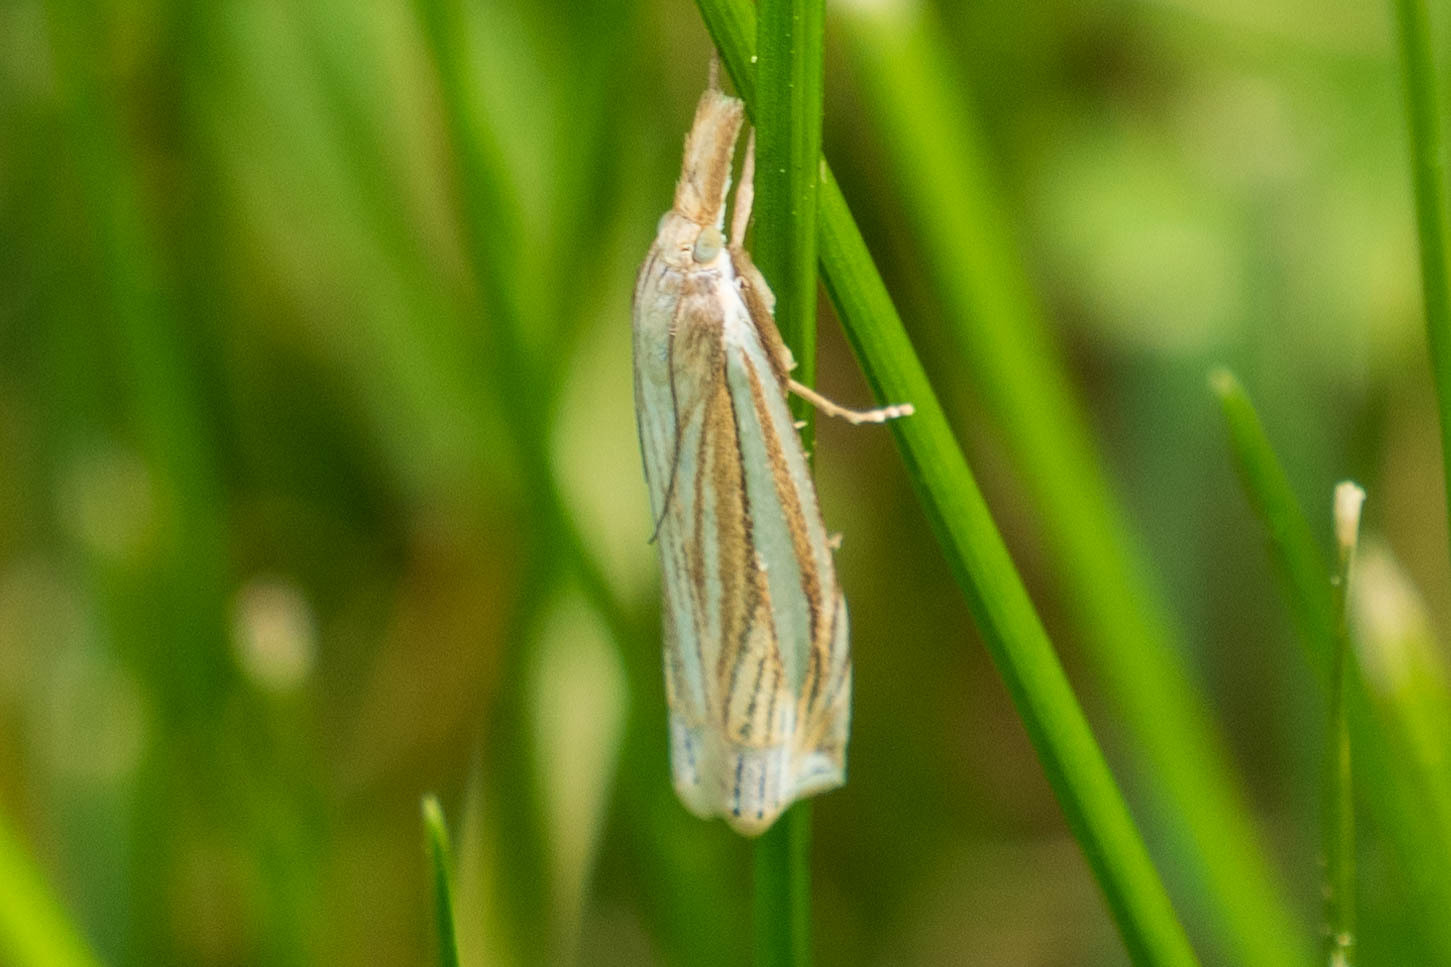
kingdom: Animalia
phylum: Arthropoda
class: Insecta
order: Lepidoptera
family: Crambidae
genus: Crambus
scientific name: Crambus laqueatellus
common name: Eastern grass-veneer
